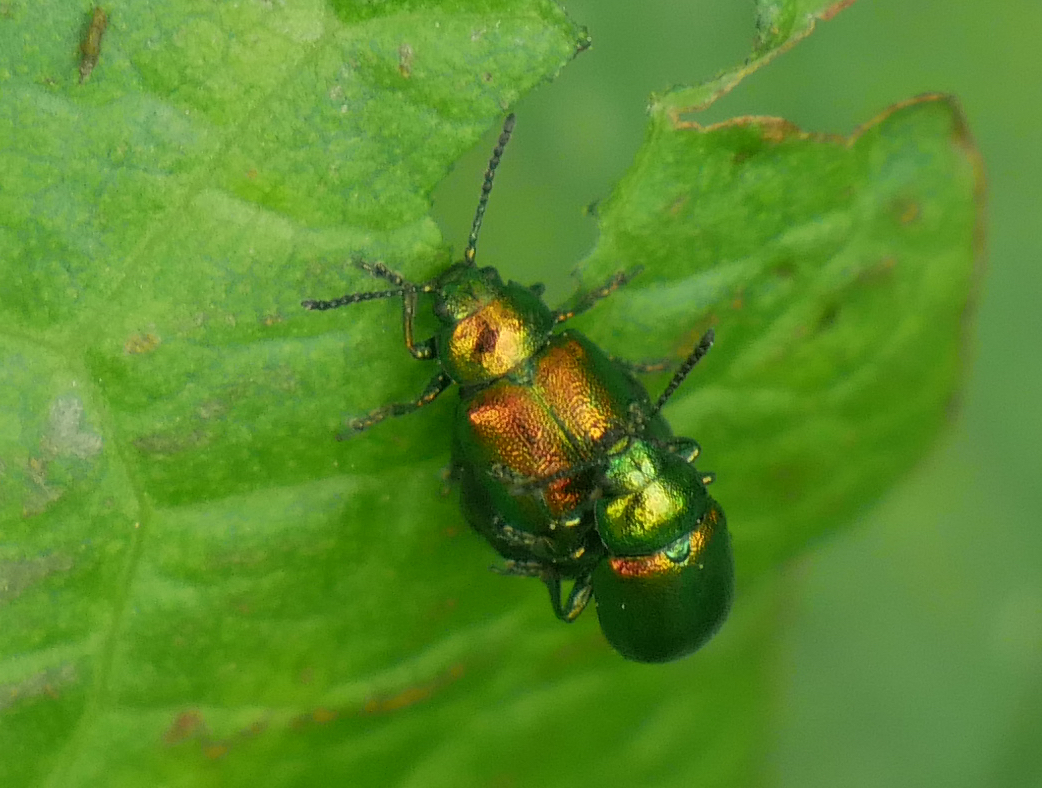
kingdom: Animalia
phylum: Arthropoda
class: Insecta
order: Coleoptera
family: Chrysomelidae
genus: Gastrophysa
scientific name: Gastrophysa viridula
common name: Green dock beetle
